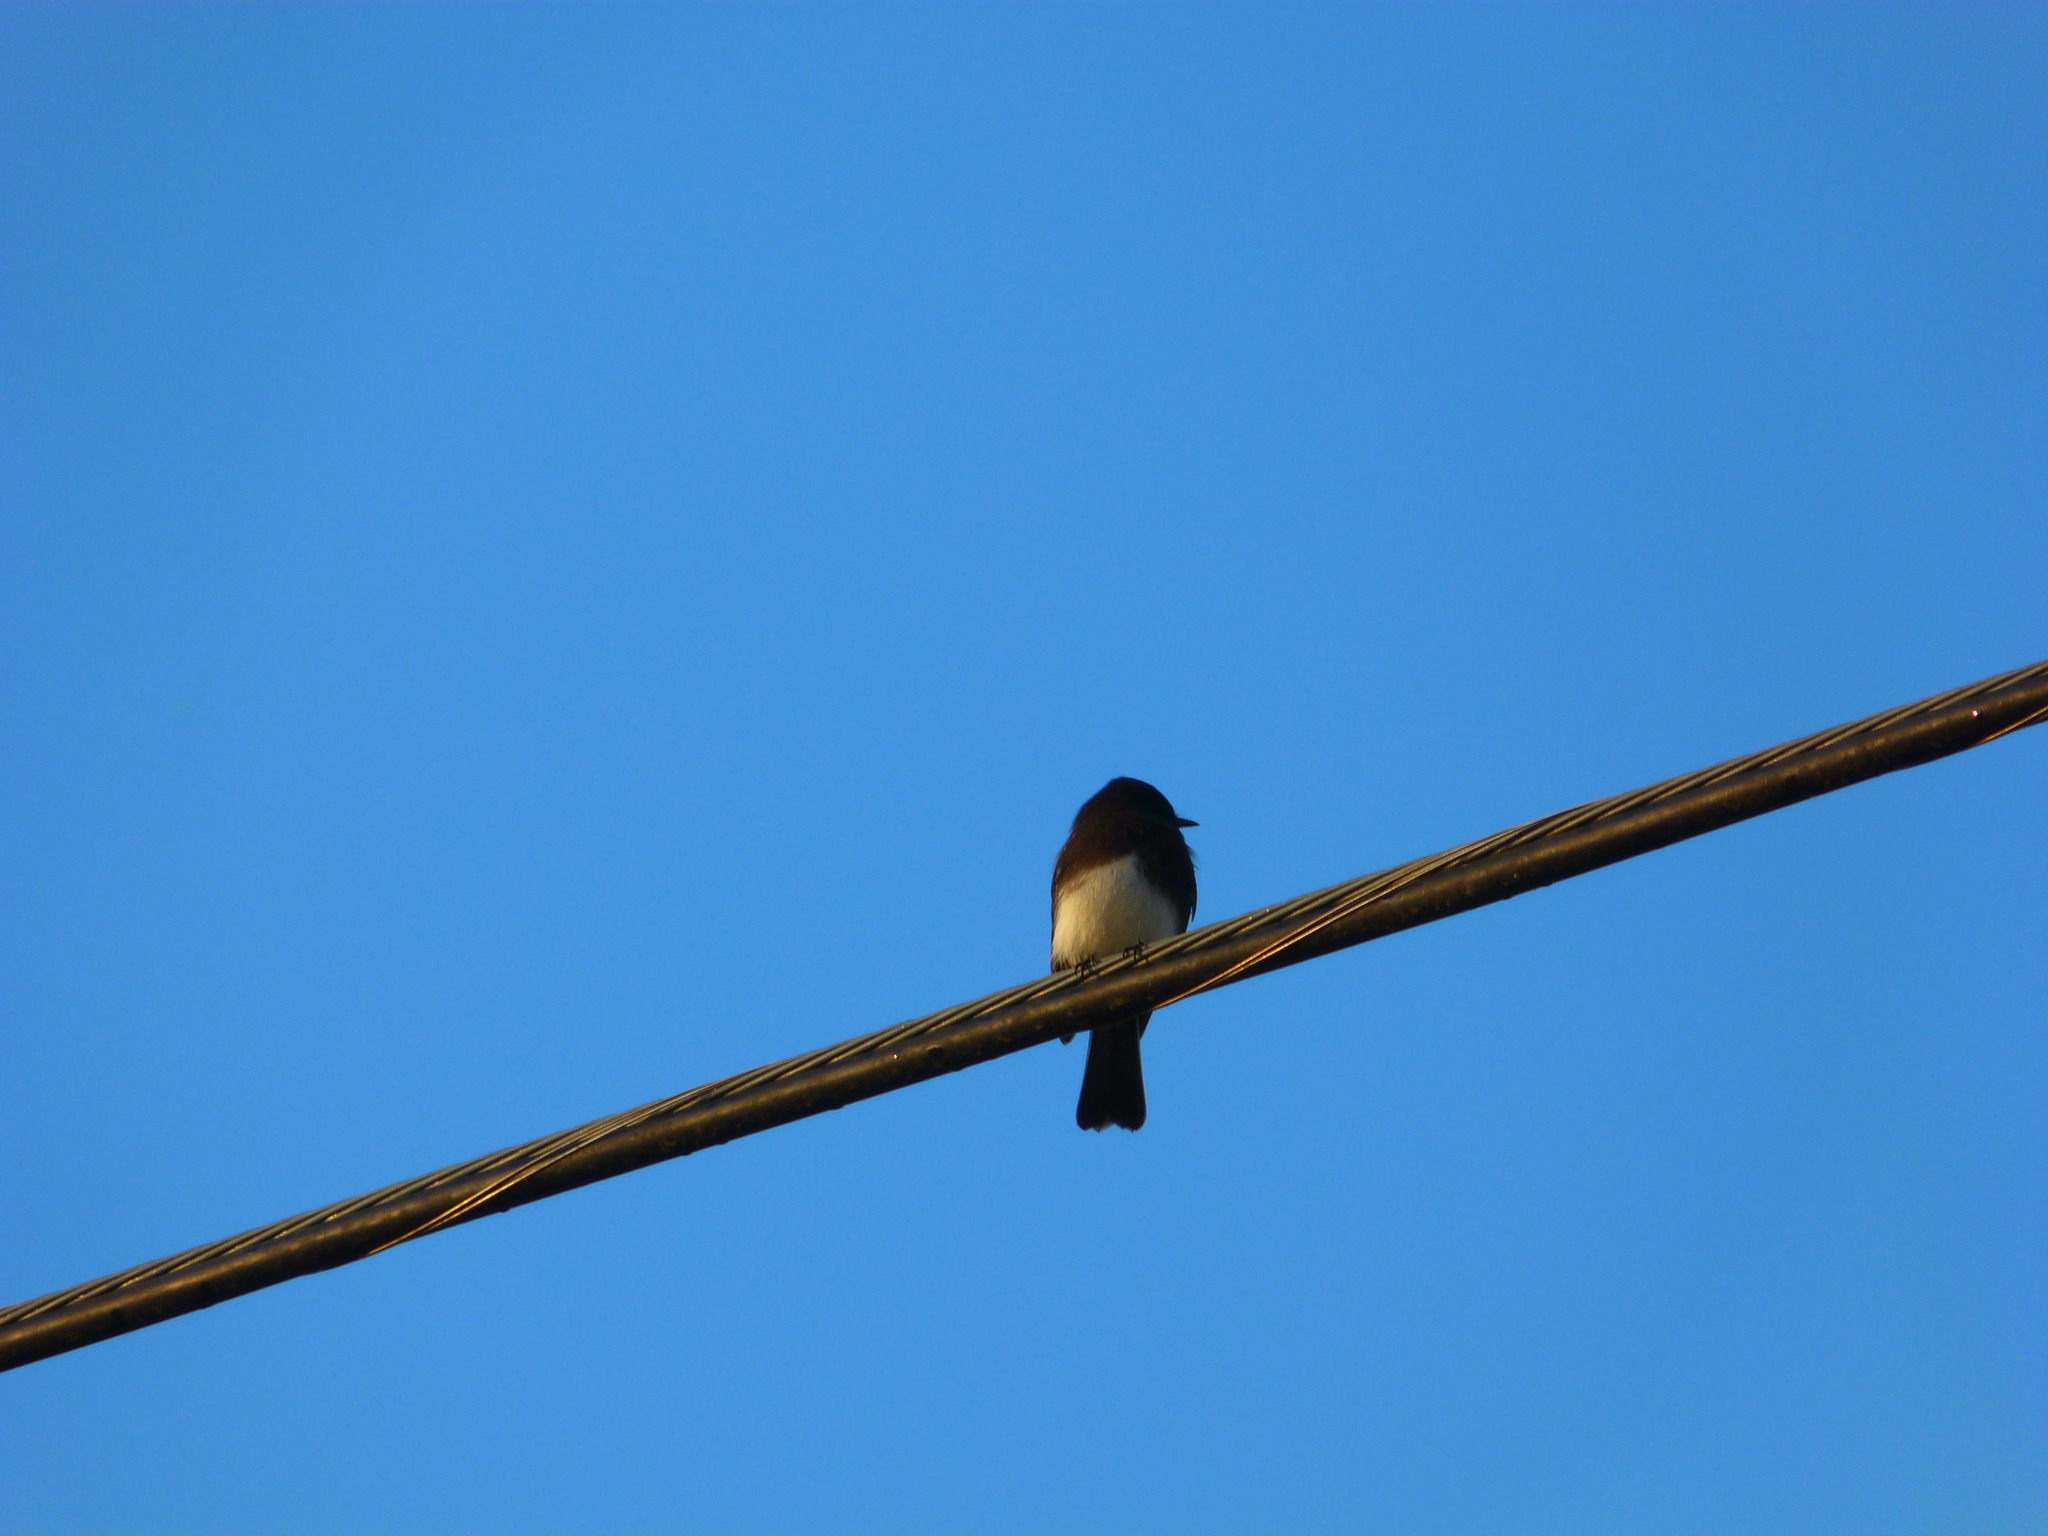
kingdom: Animalia
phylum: Chordata
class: Aves
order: Passeriformes
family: Tyrannidae
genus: Sayornis
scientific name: Sayornis nigricans
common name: Black phoebe
